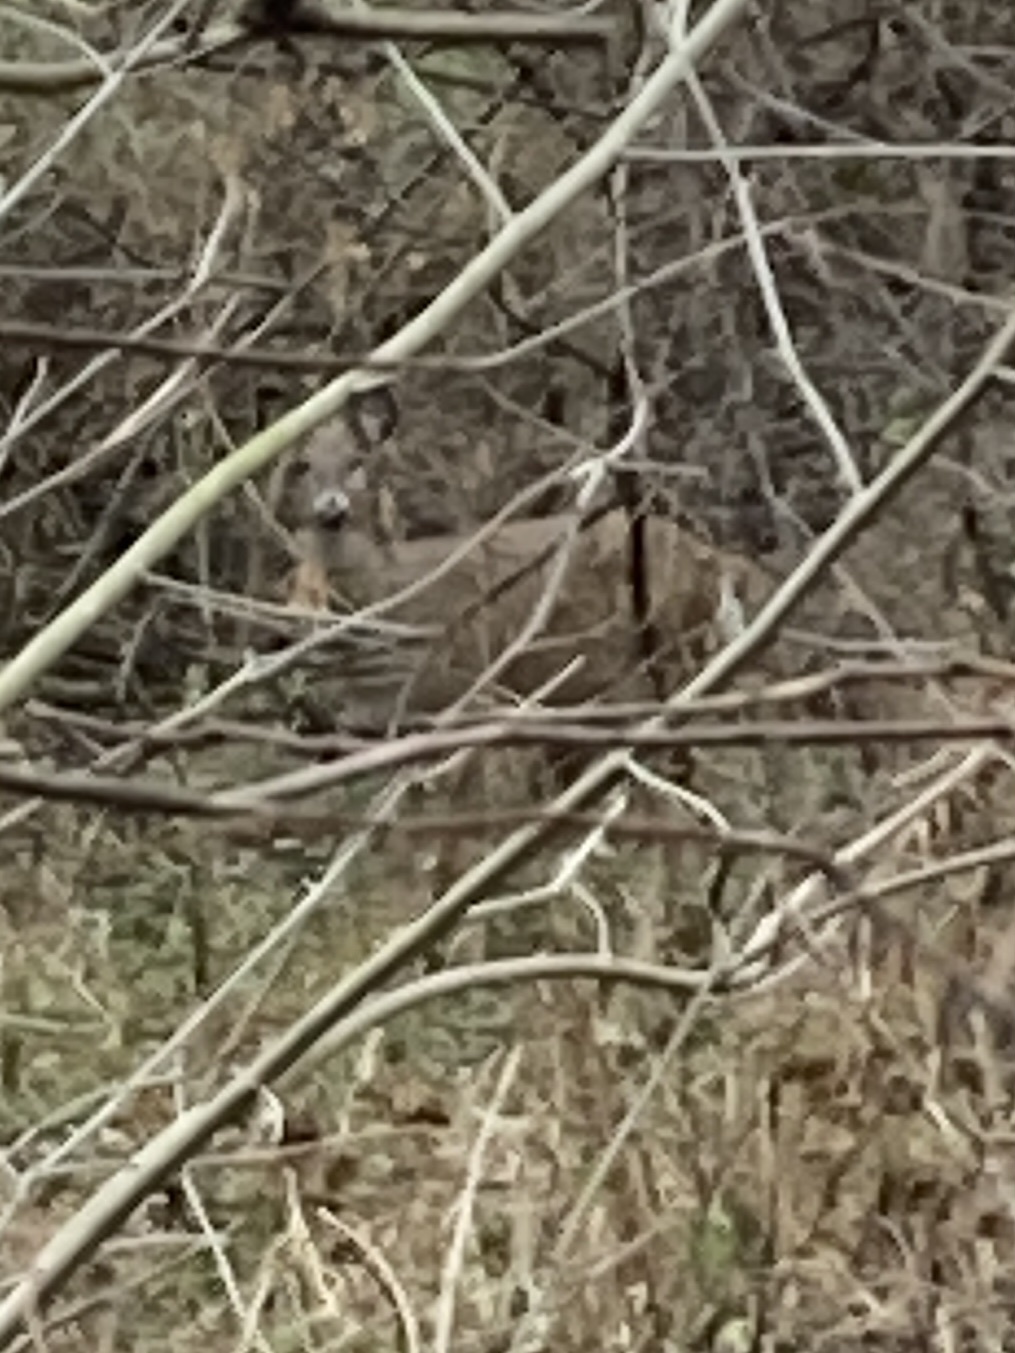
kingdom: Animalia
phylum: Chordata
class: Mammalia
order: Artiodactyla
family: Cervidae
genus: Odocoileus
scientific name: Odocoileus virginianus
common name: White-tailed deer
